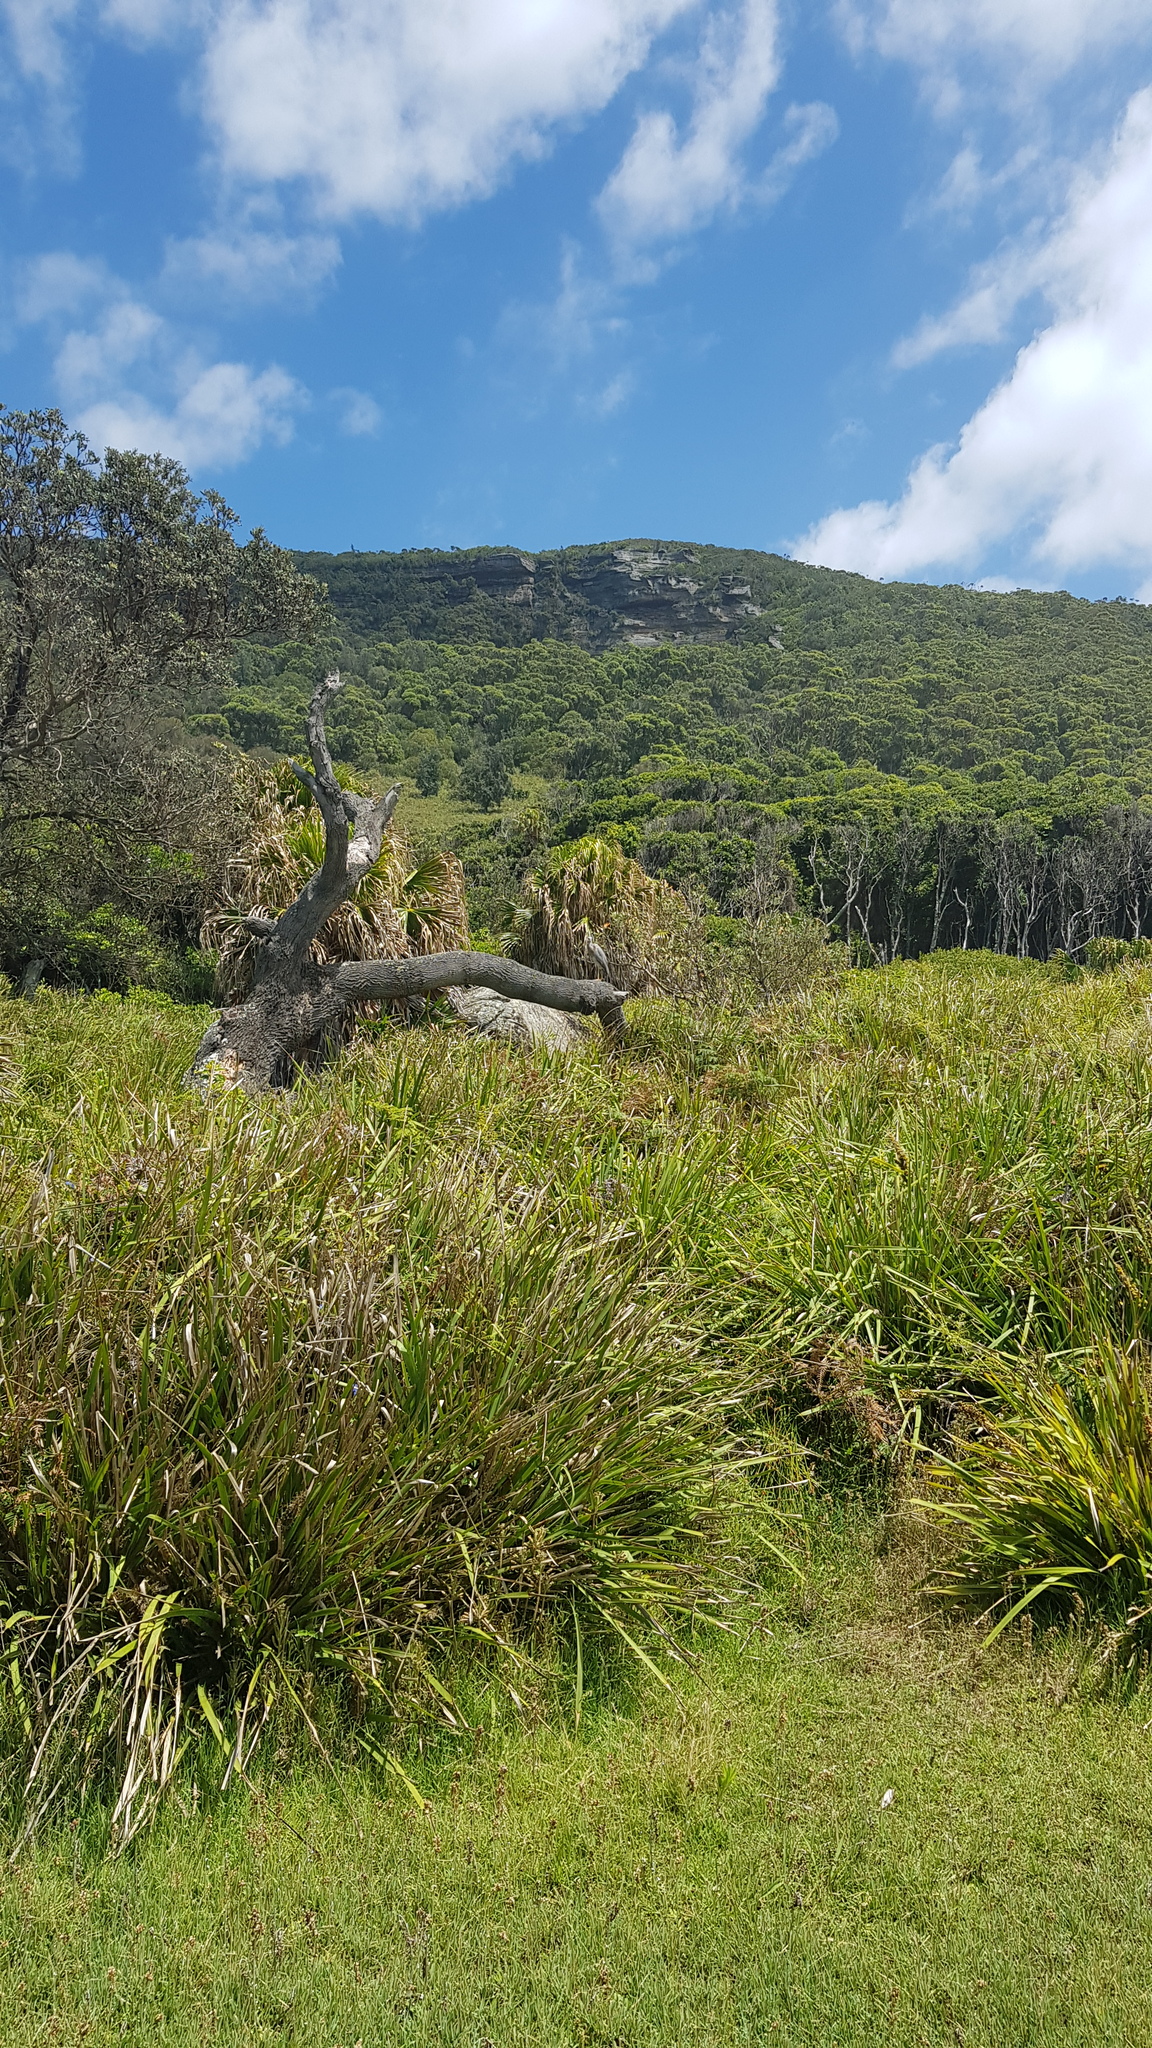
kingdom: Animalia
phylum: Chordata
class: Aves
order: Pelecaniformes
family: Ardeidae
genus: Egretta
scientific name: Egretta novaehollandiae
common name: White-faced heron
